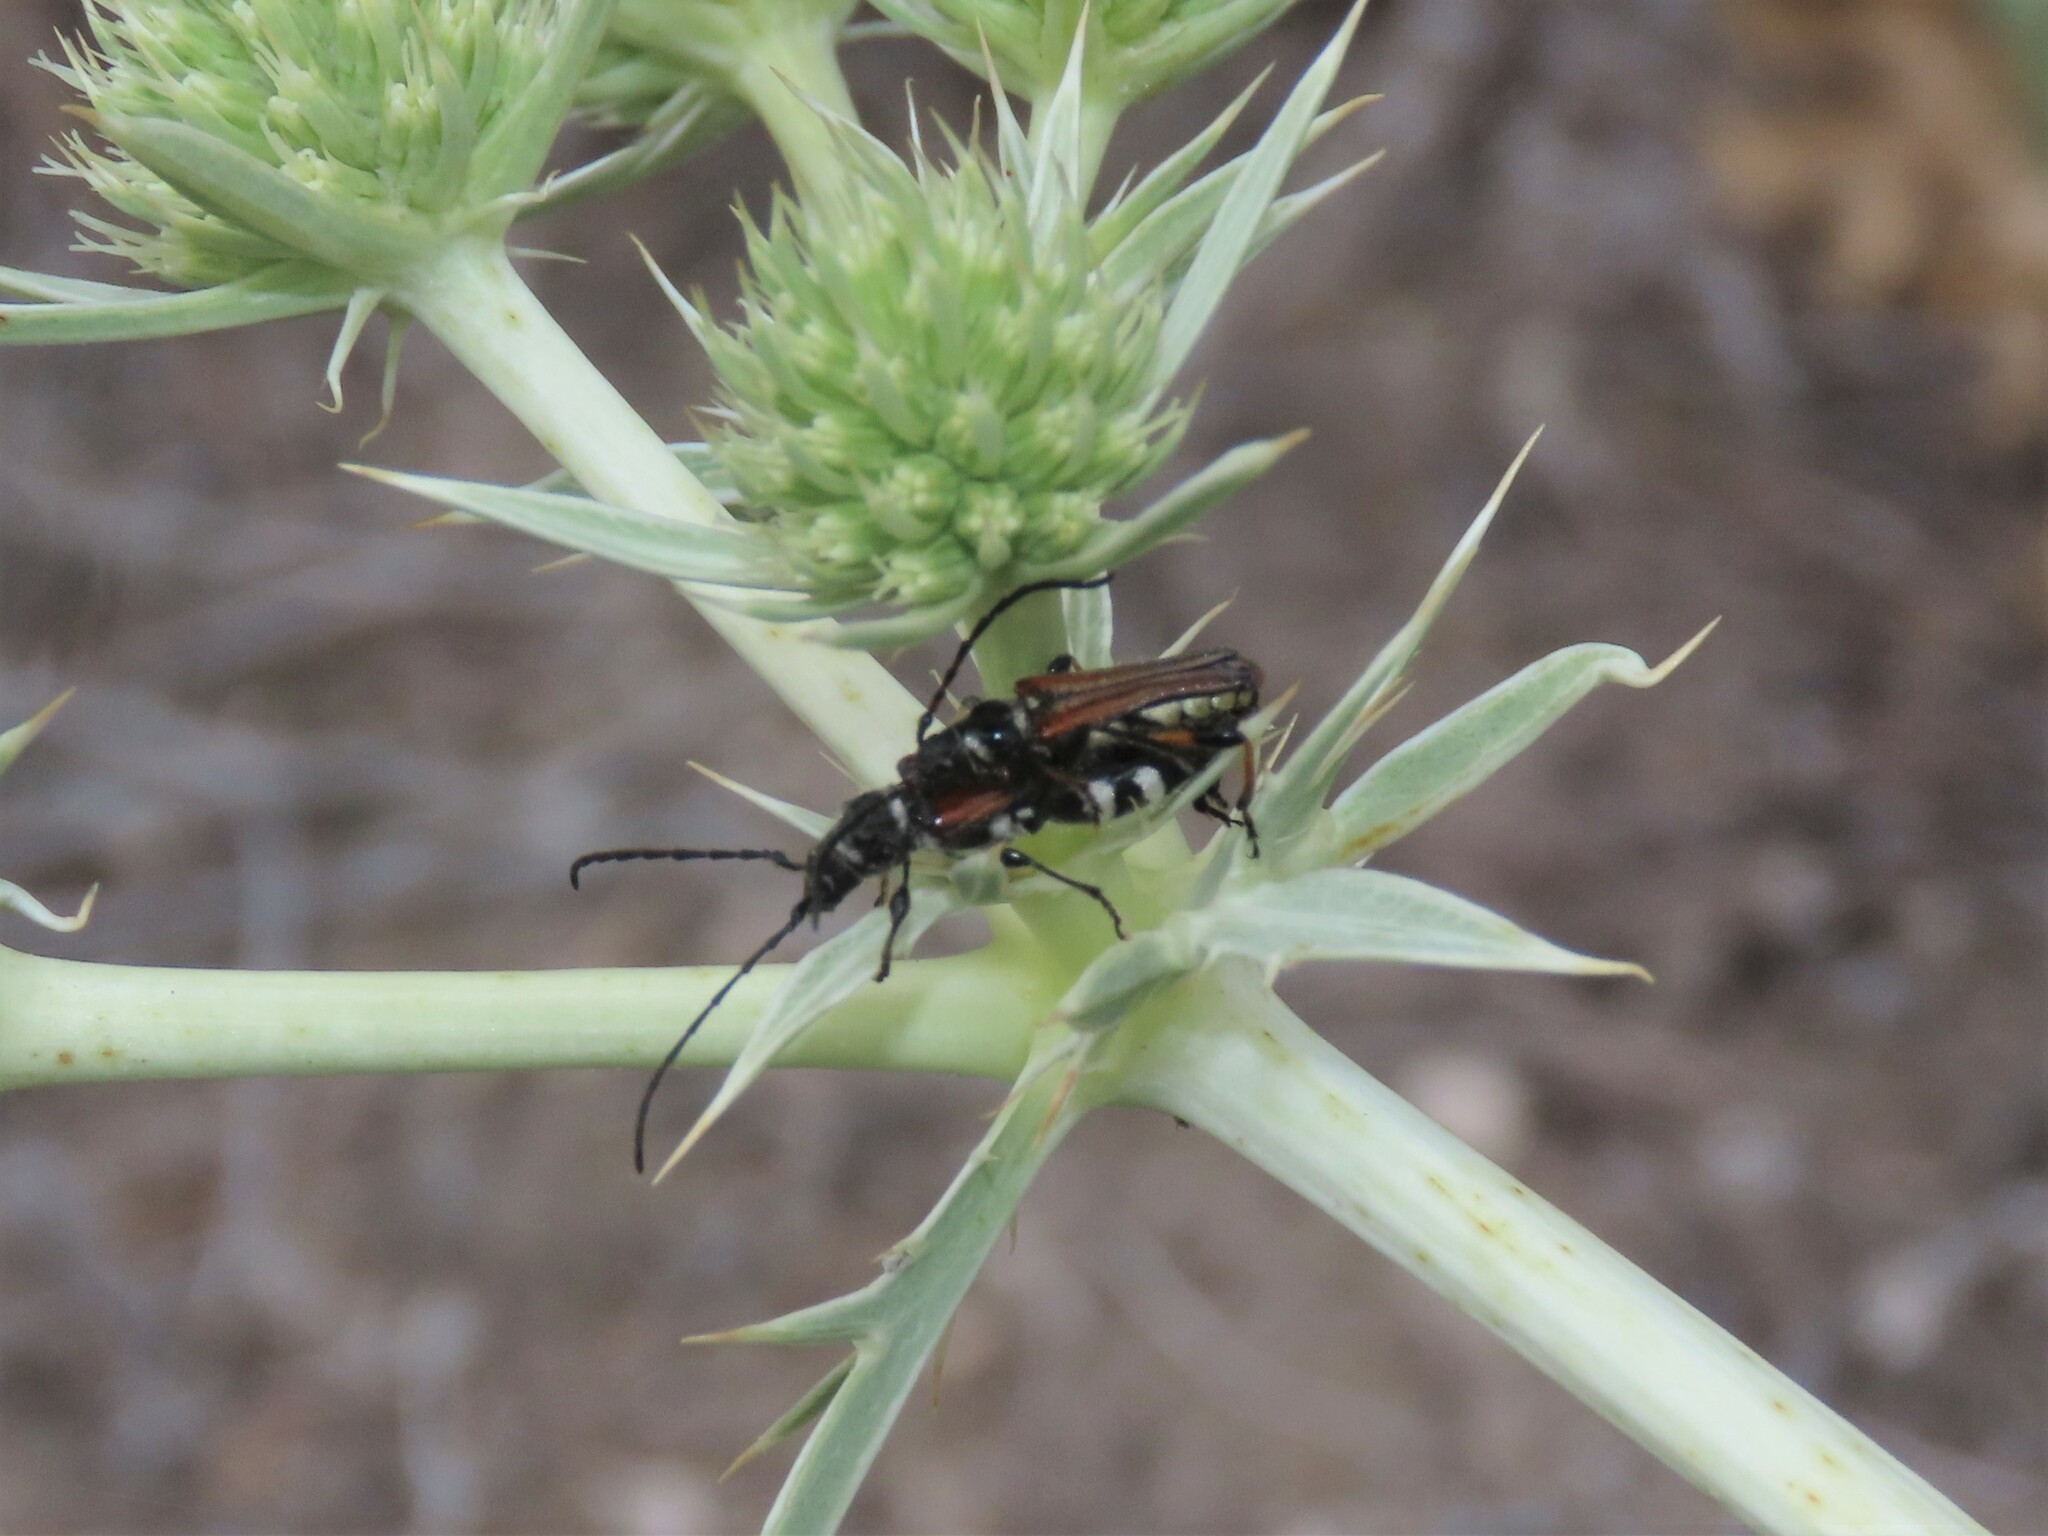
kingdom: Animalia
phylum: Arthropoda
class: Insecta
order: Coleoptera
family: Cerambycidae
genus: Stenopterus
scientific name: Stenopterus ater
